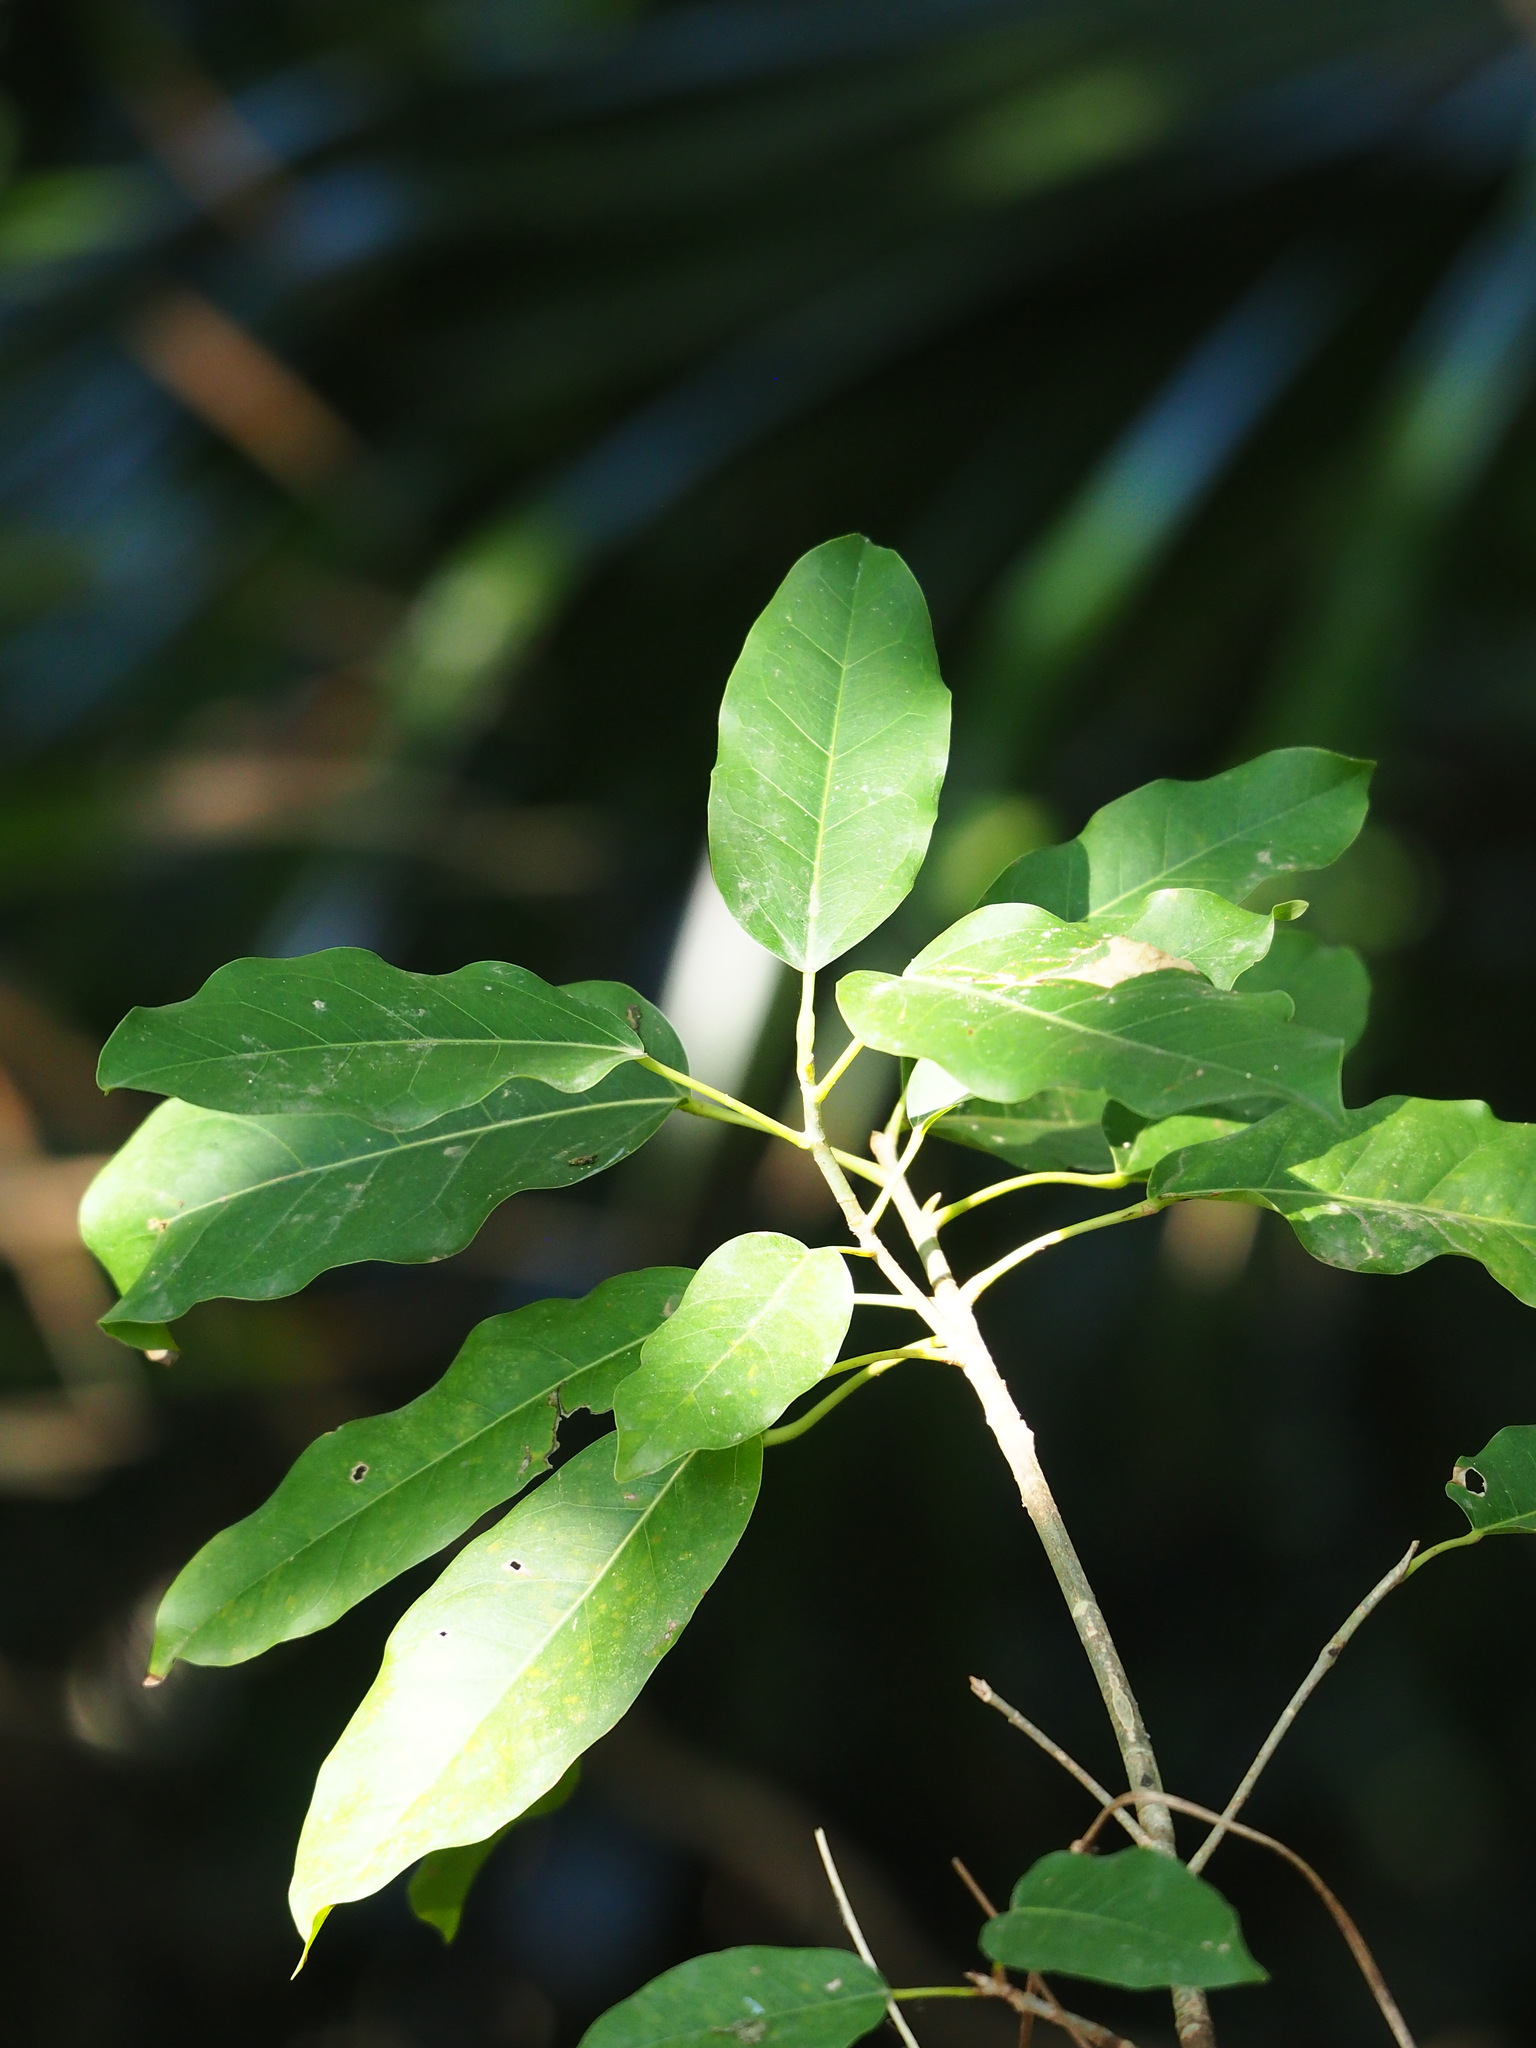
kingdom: Plantae
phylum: Tracheophyta
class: Magnoliopsida
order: Rosales
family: Moraceae
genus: Ficus
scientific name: Ficus subpisocarpa
